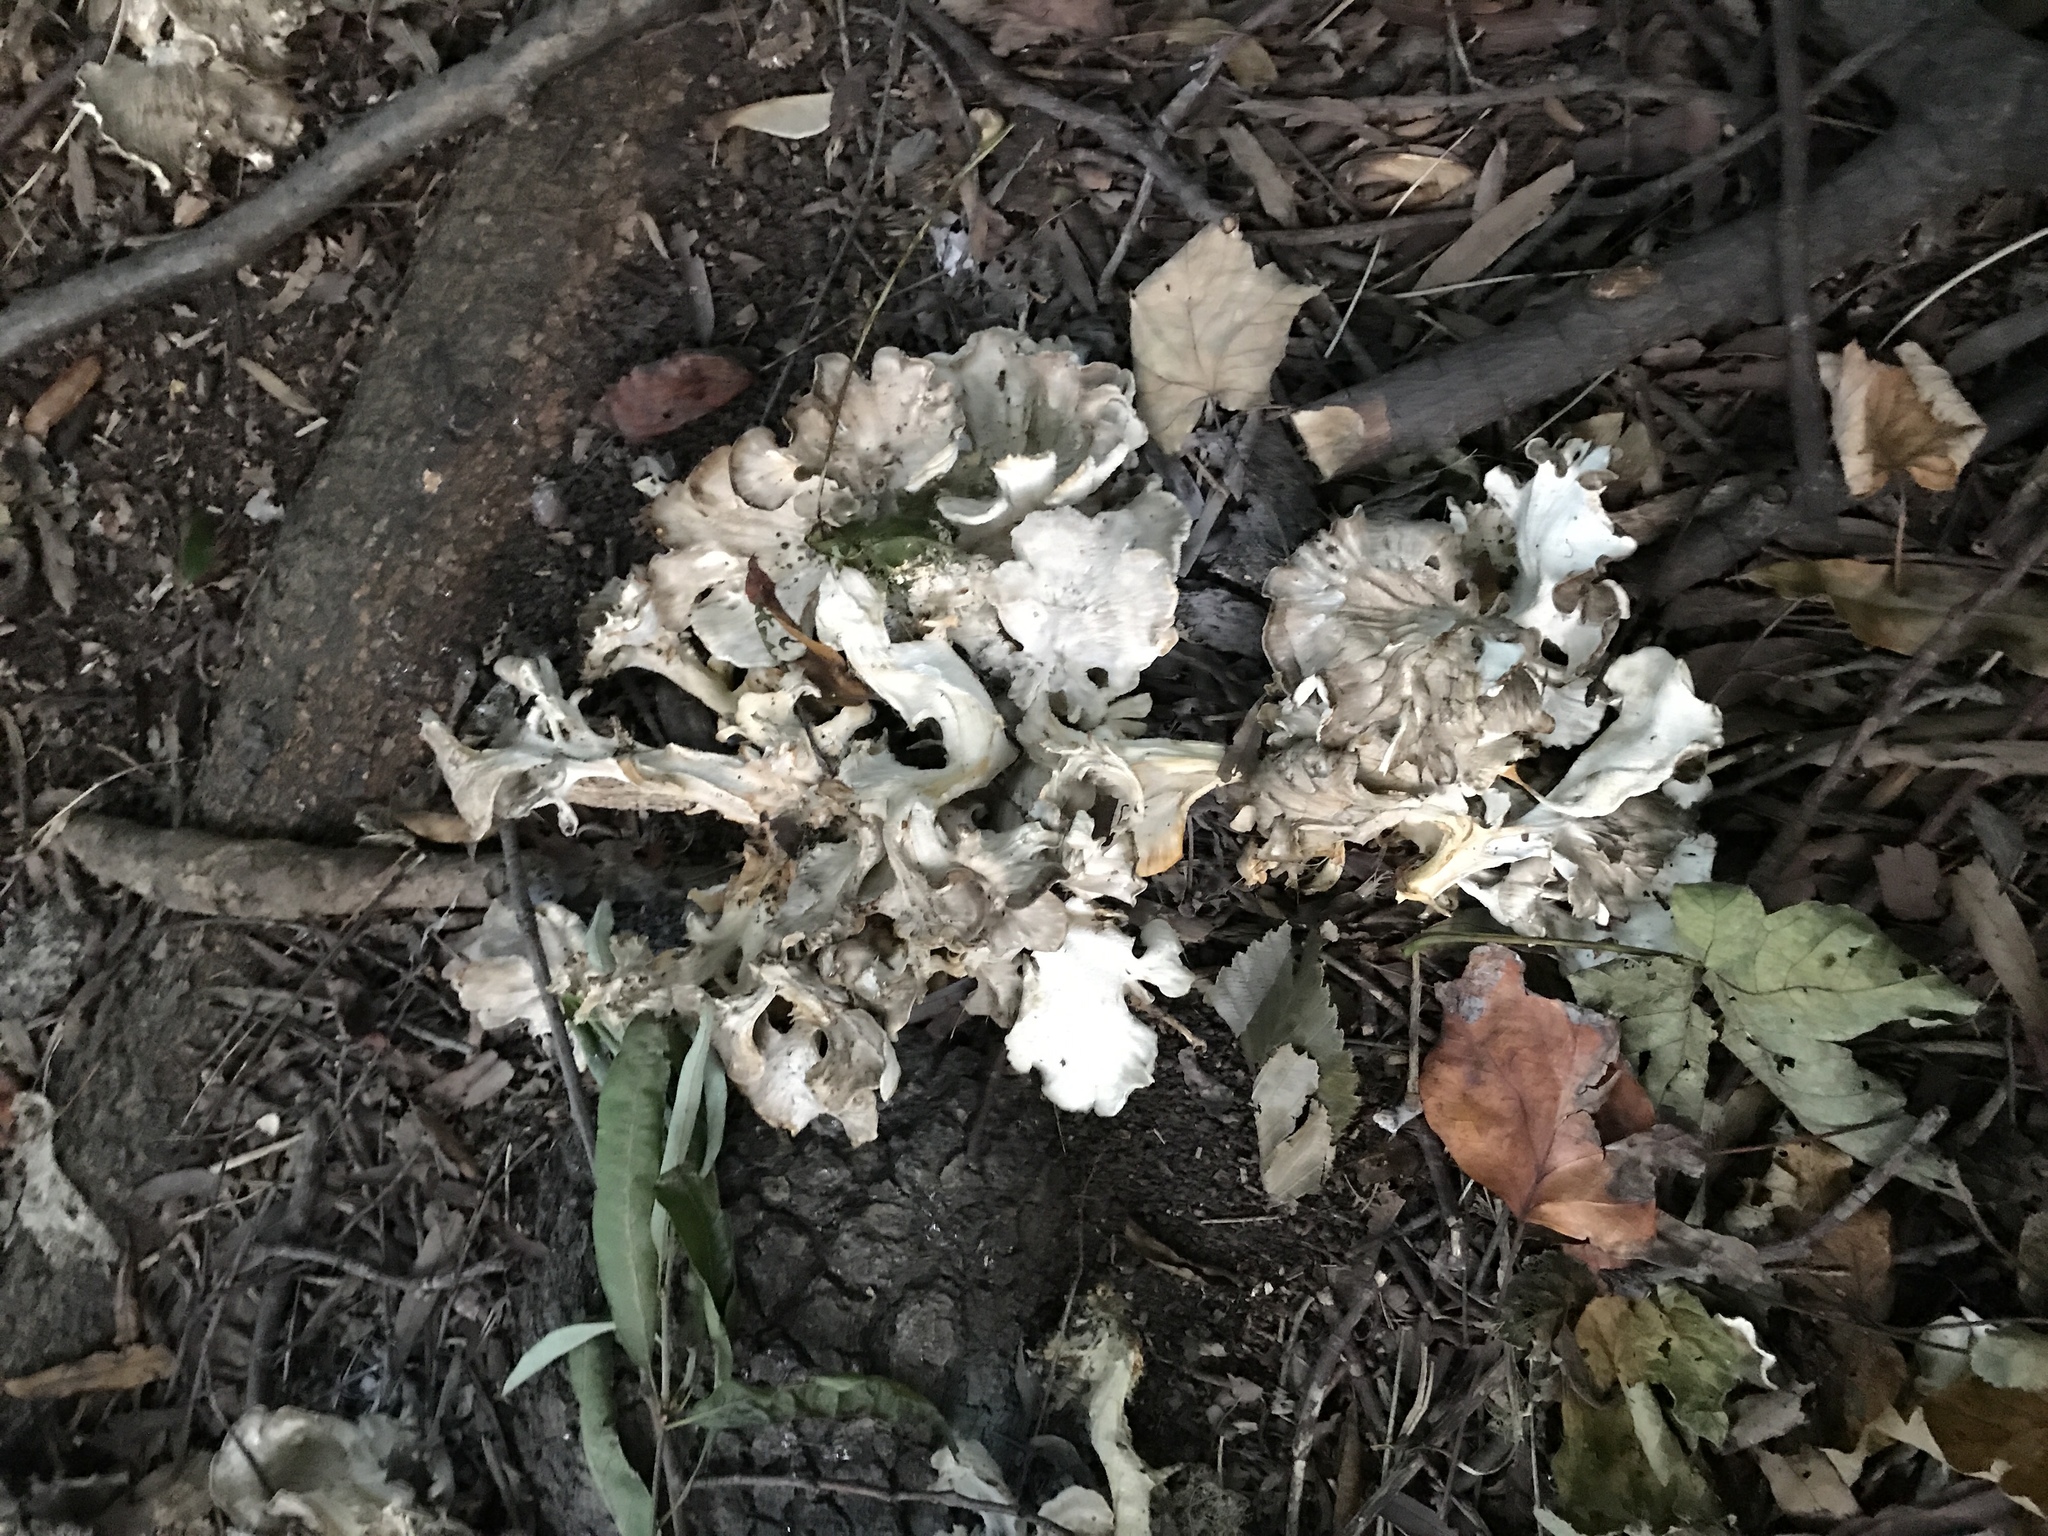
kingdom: Fungi
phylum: Basidiomycota
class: Agaricomycetes
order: Polyporales
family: Grifolaceae
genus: Grifola
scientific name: Grifola frondosa
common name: Hen of the woods
